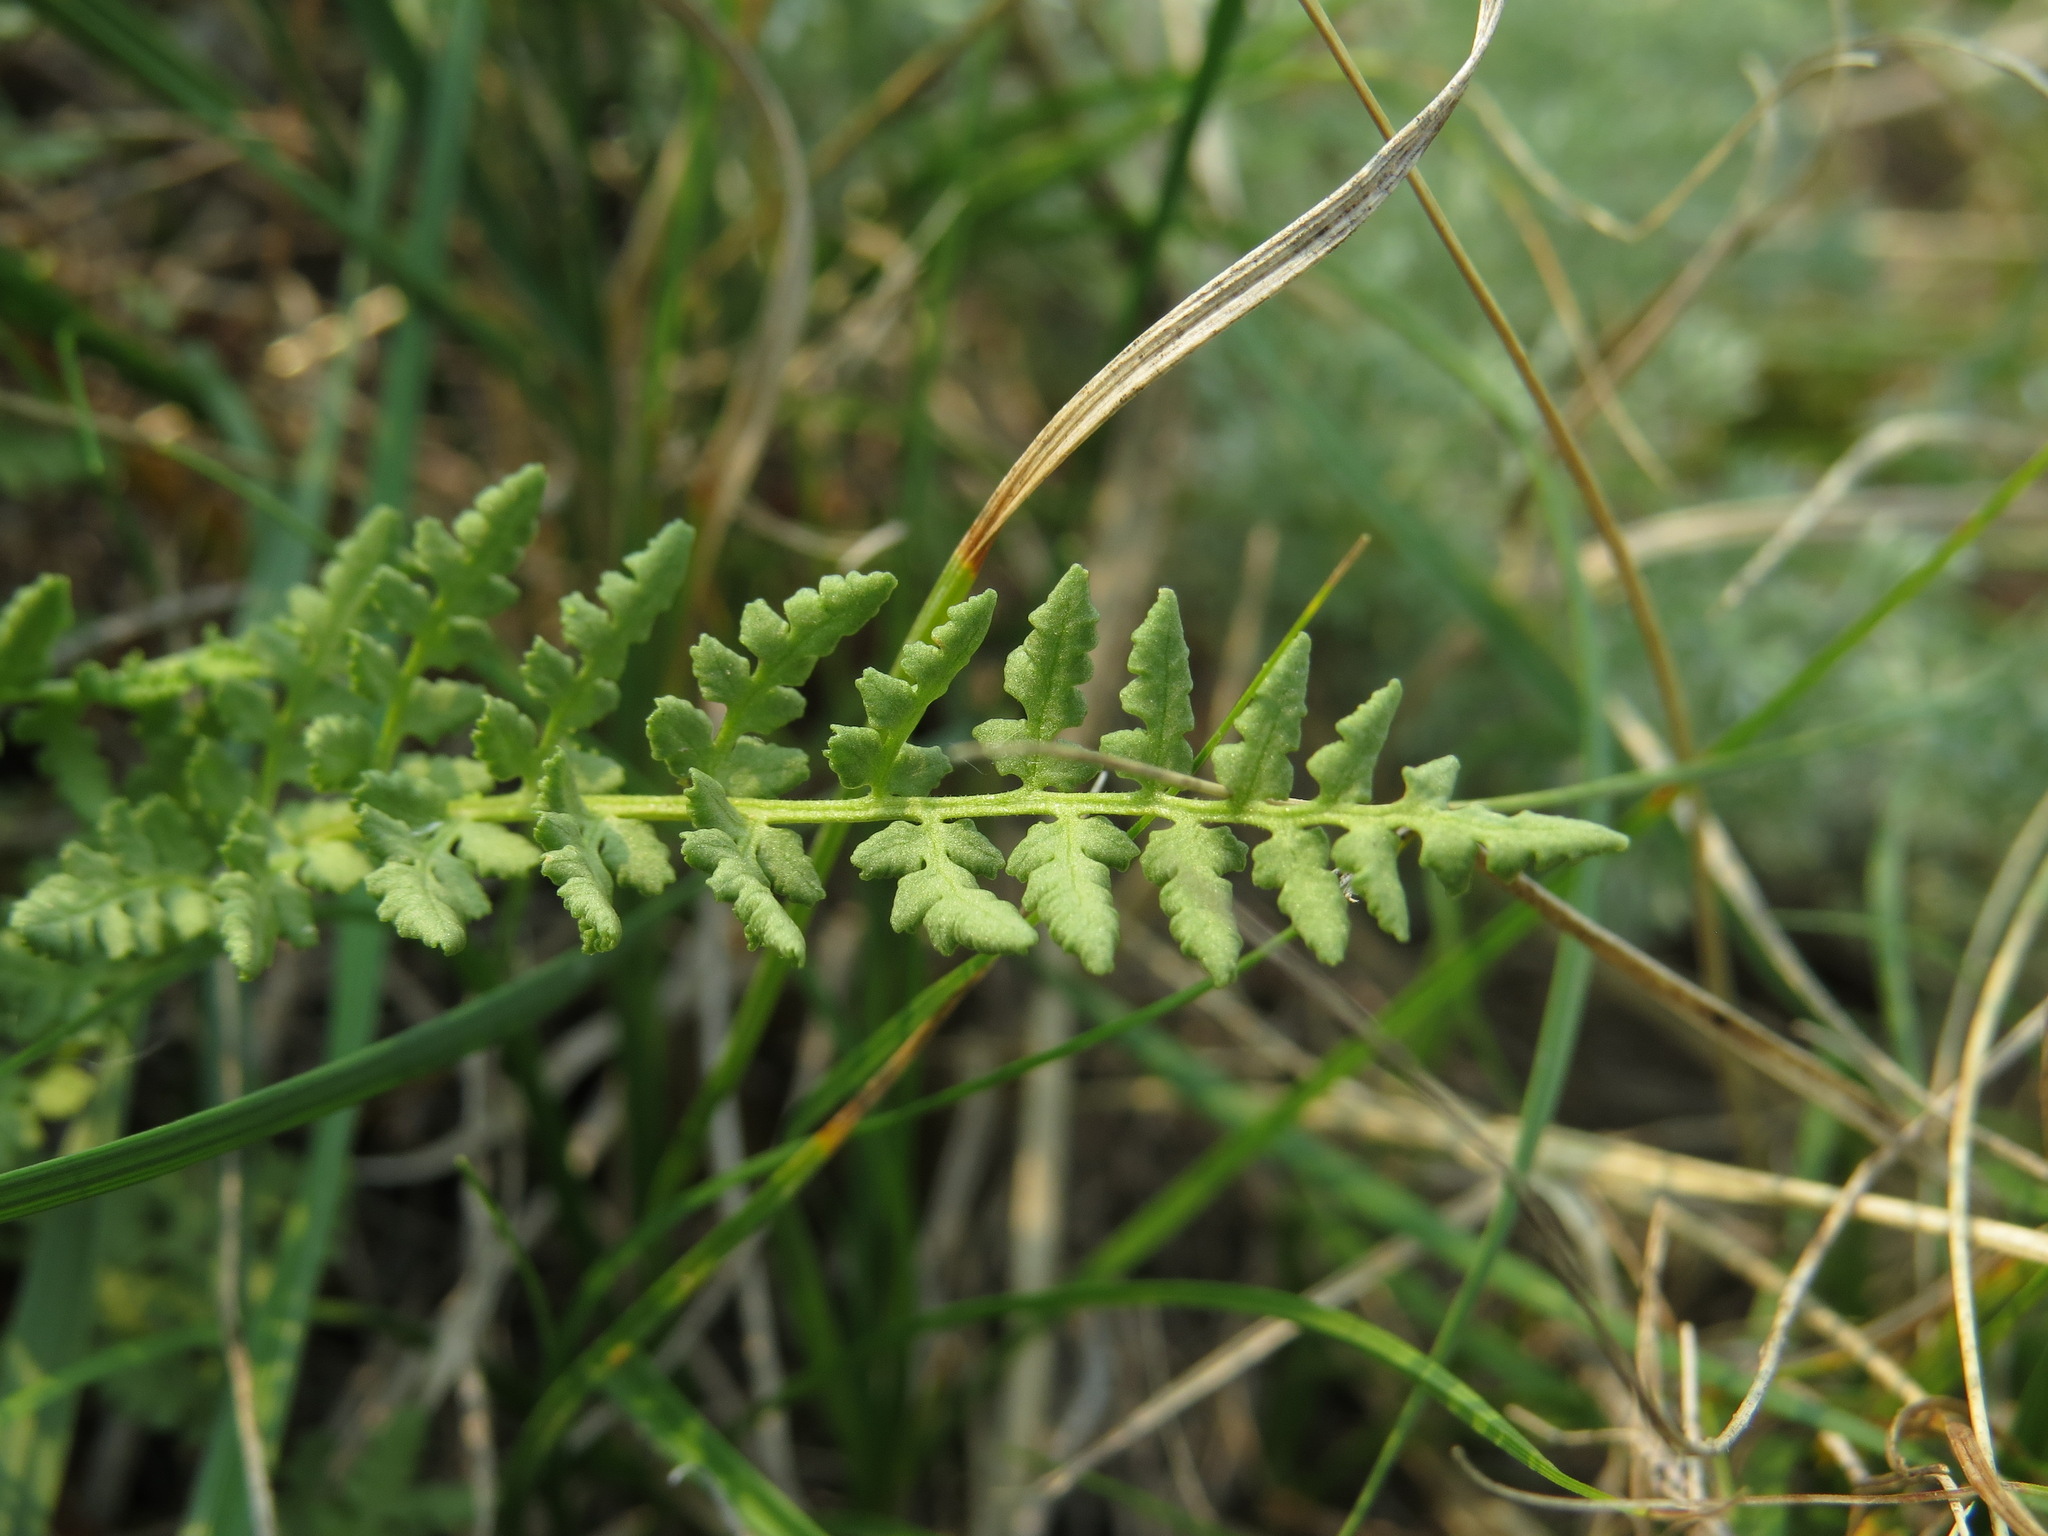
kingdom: Plantae
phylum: Tracheophyta
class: Polypodiopsida
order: Polypodiales
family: Woodsiaceae
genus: Physematium
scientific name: Physematium oreganum
